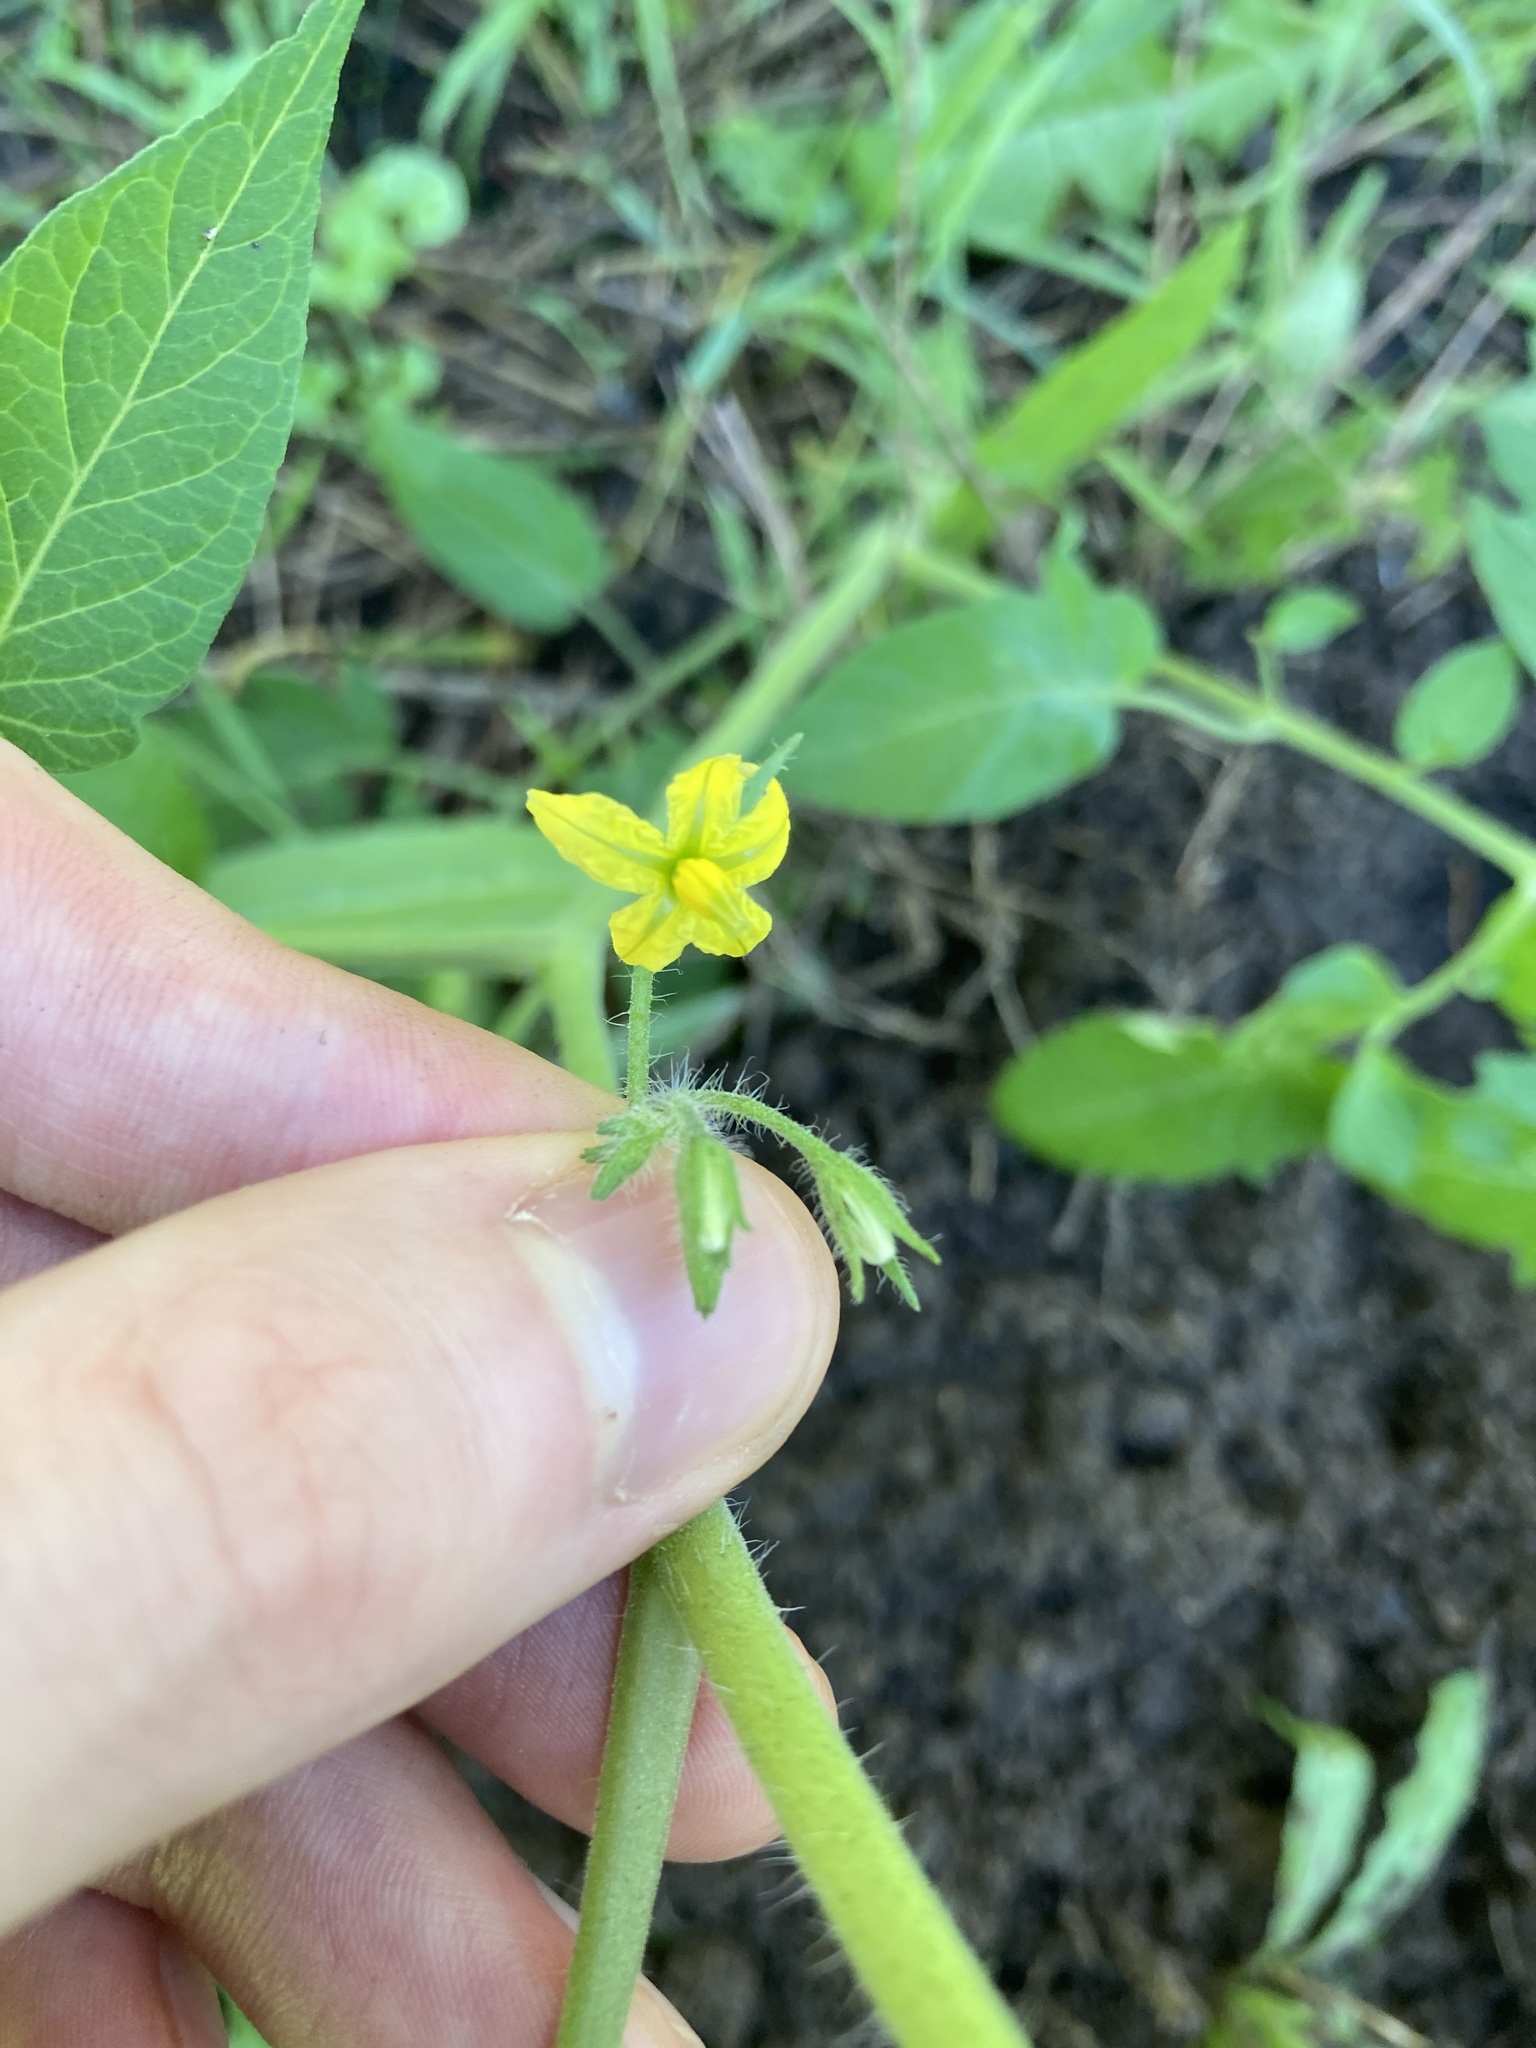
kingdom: Plantae
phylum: Tracheophyta
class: Magnoliopsida
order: Solanales
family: Solanaceae
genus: Solanum
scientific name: Solanum lycopersicum
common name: Garden tomato
